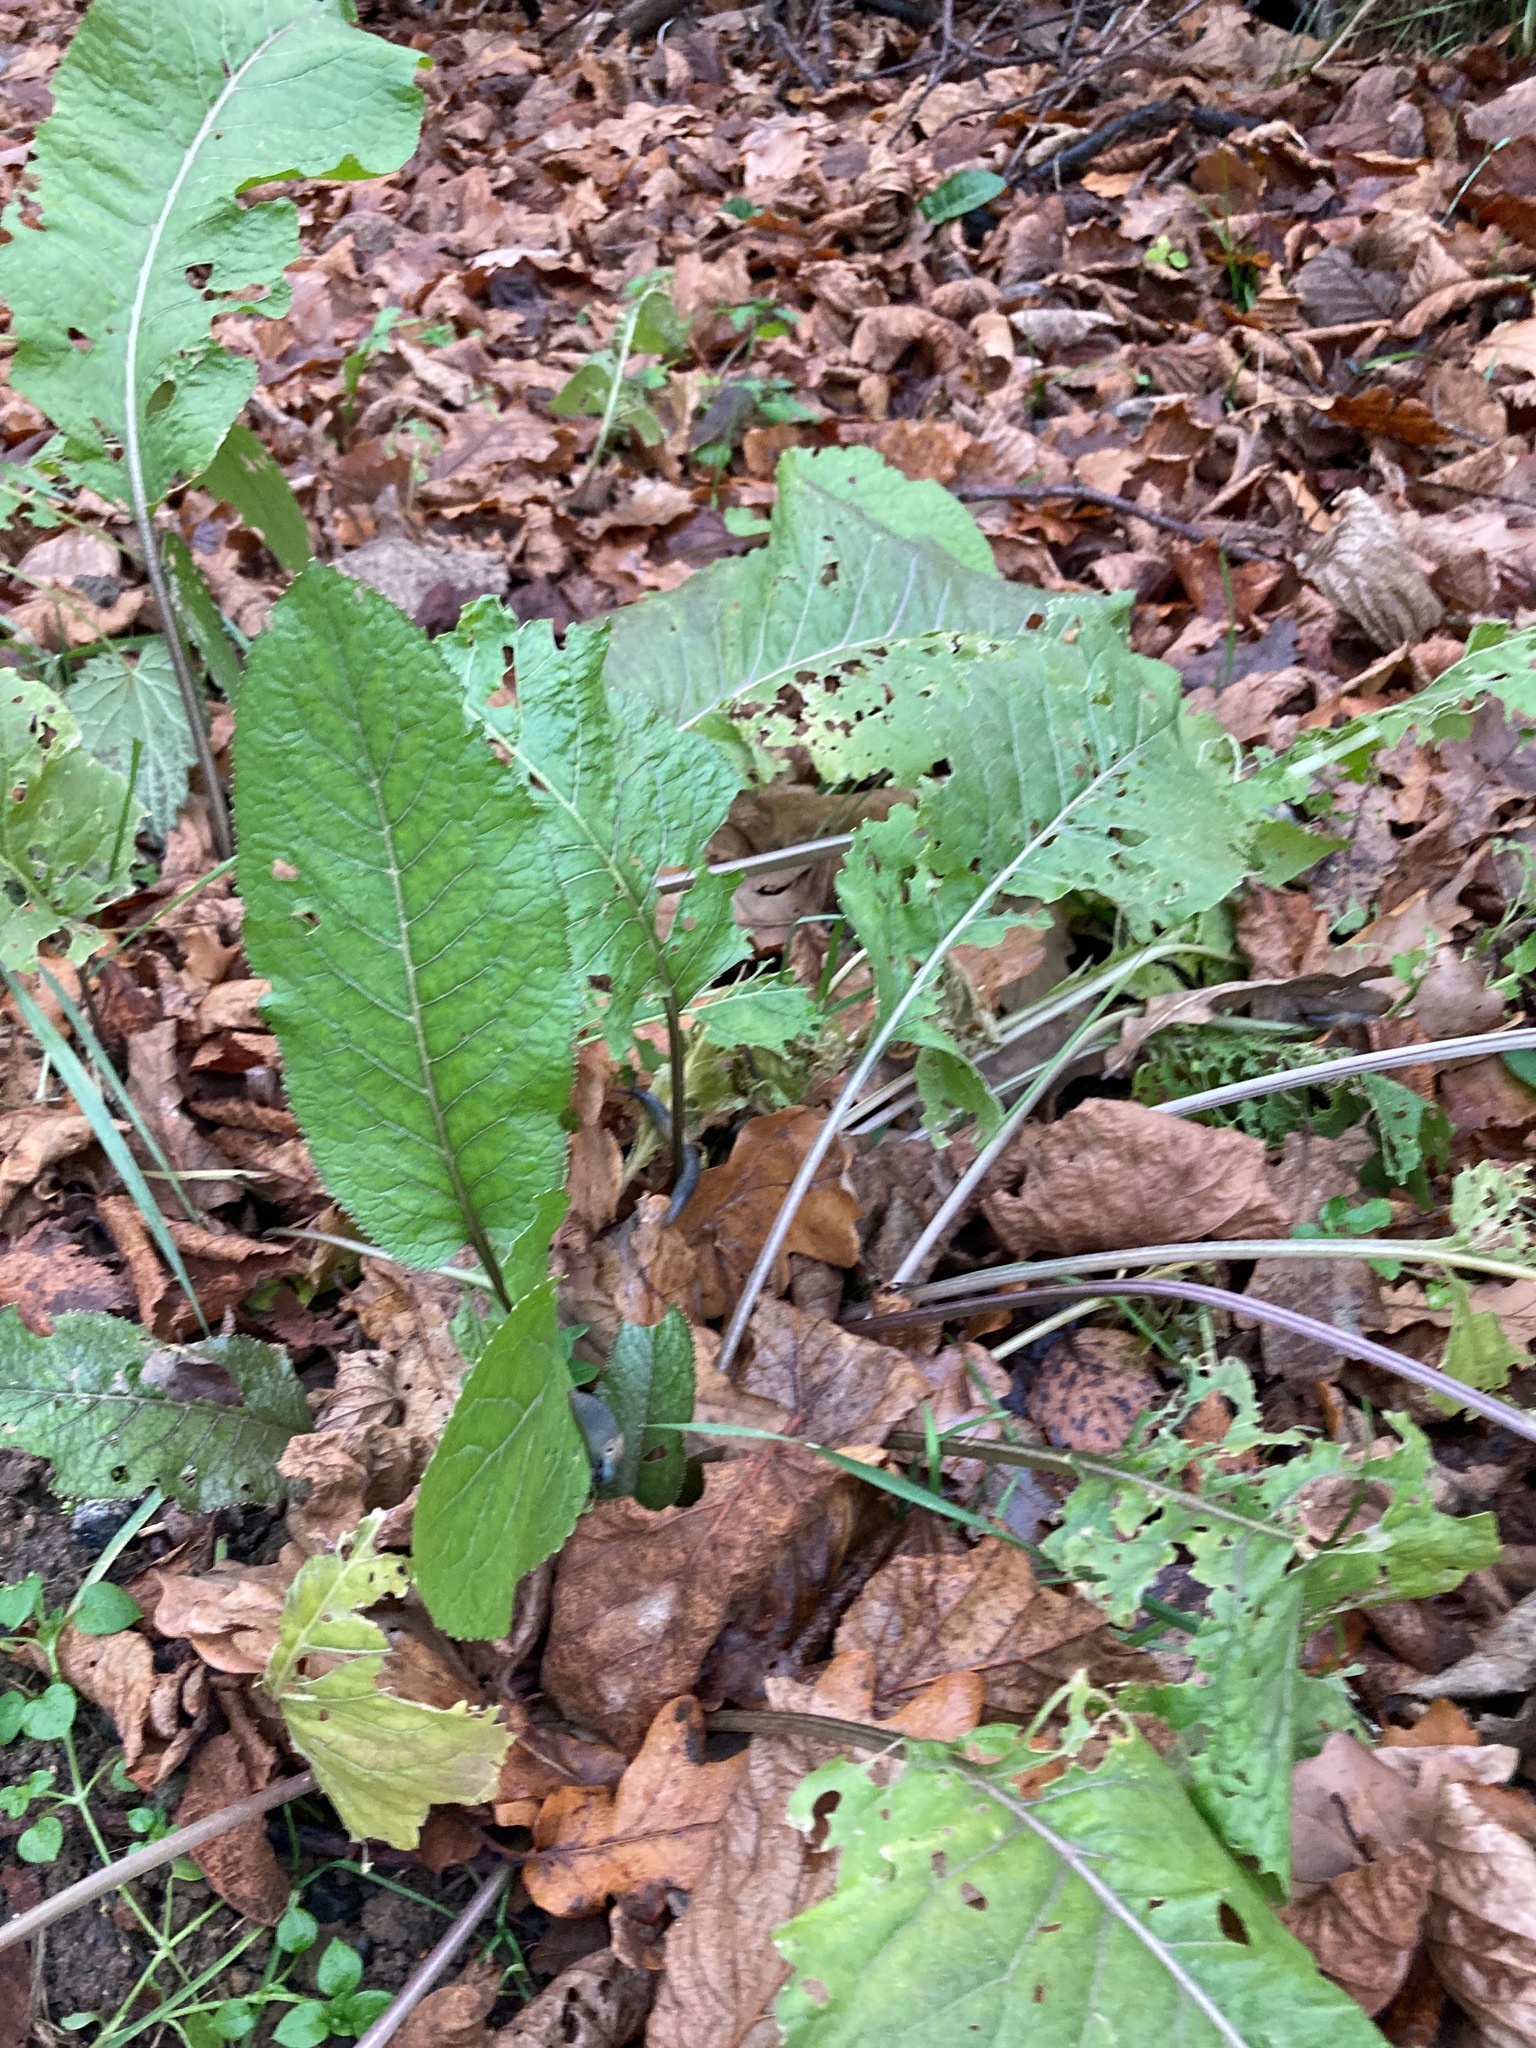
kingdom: Plantae
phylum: Tracheophyta
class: Magnoliopsida
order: Brassicales
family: Brassicaceae
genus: Armoracia
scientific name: Armoracia rusticana
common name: Horseradish
